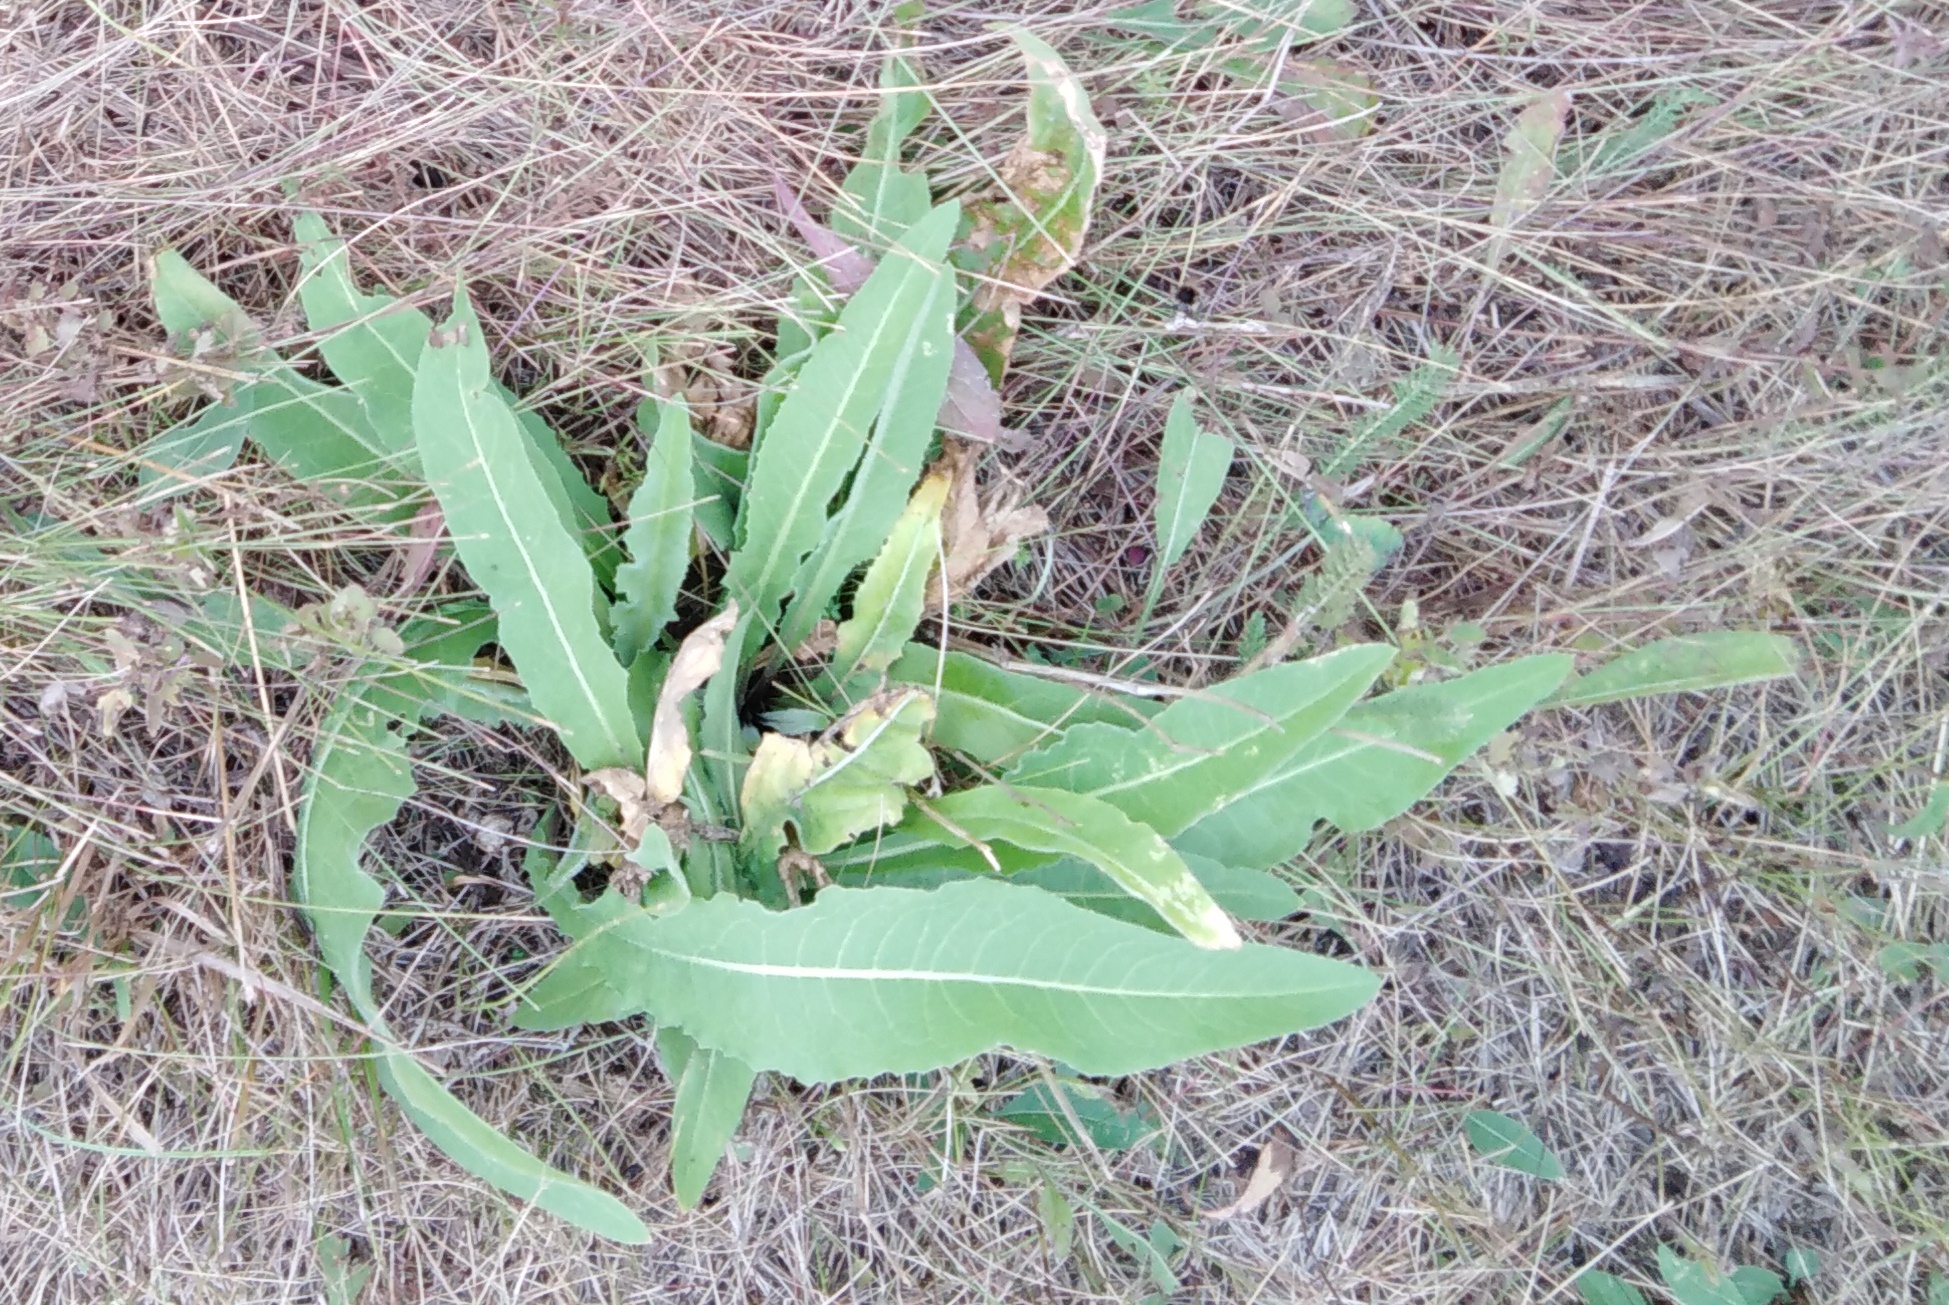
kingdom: Plantae
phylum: Tracheophyta
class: Magnoliopsida
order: Asterales
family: Asteraceae
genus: Cichorium
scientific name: Cichorium intybus
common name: Chicory
